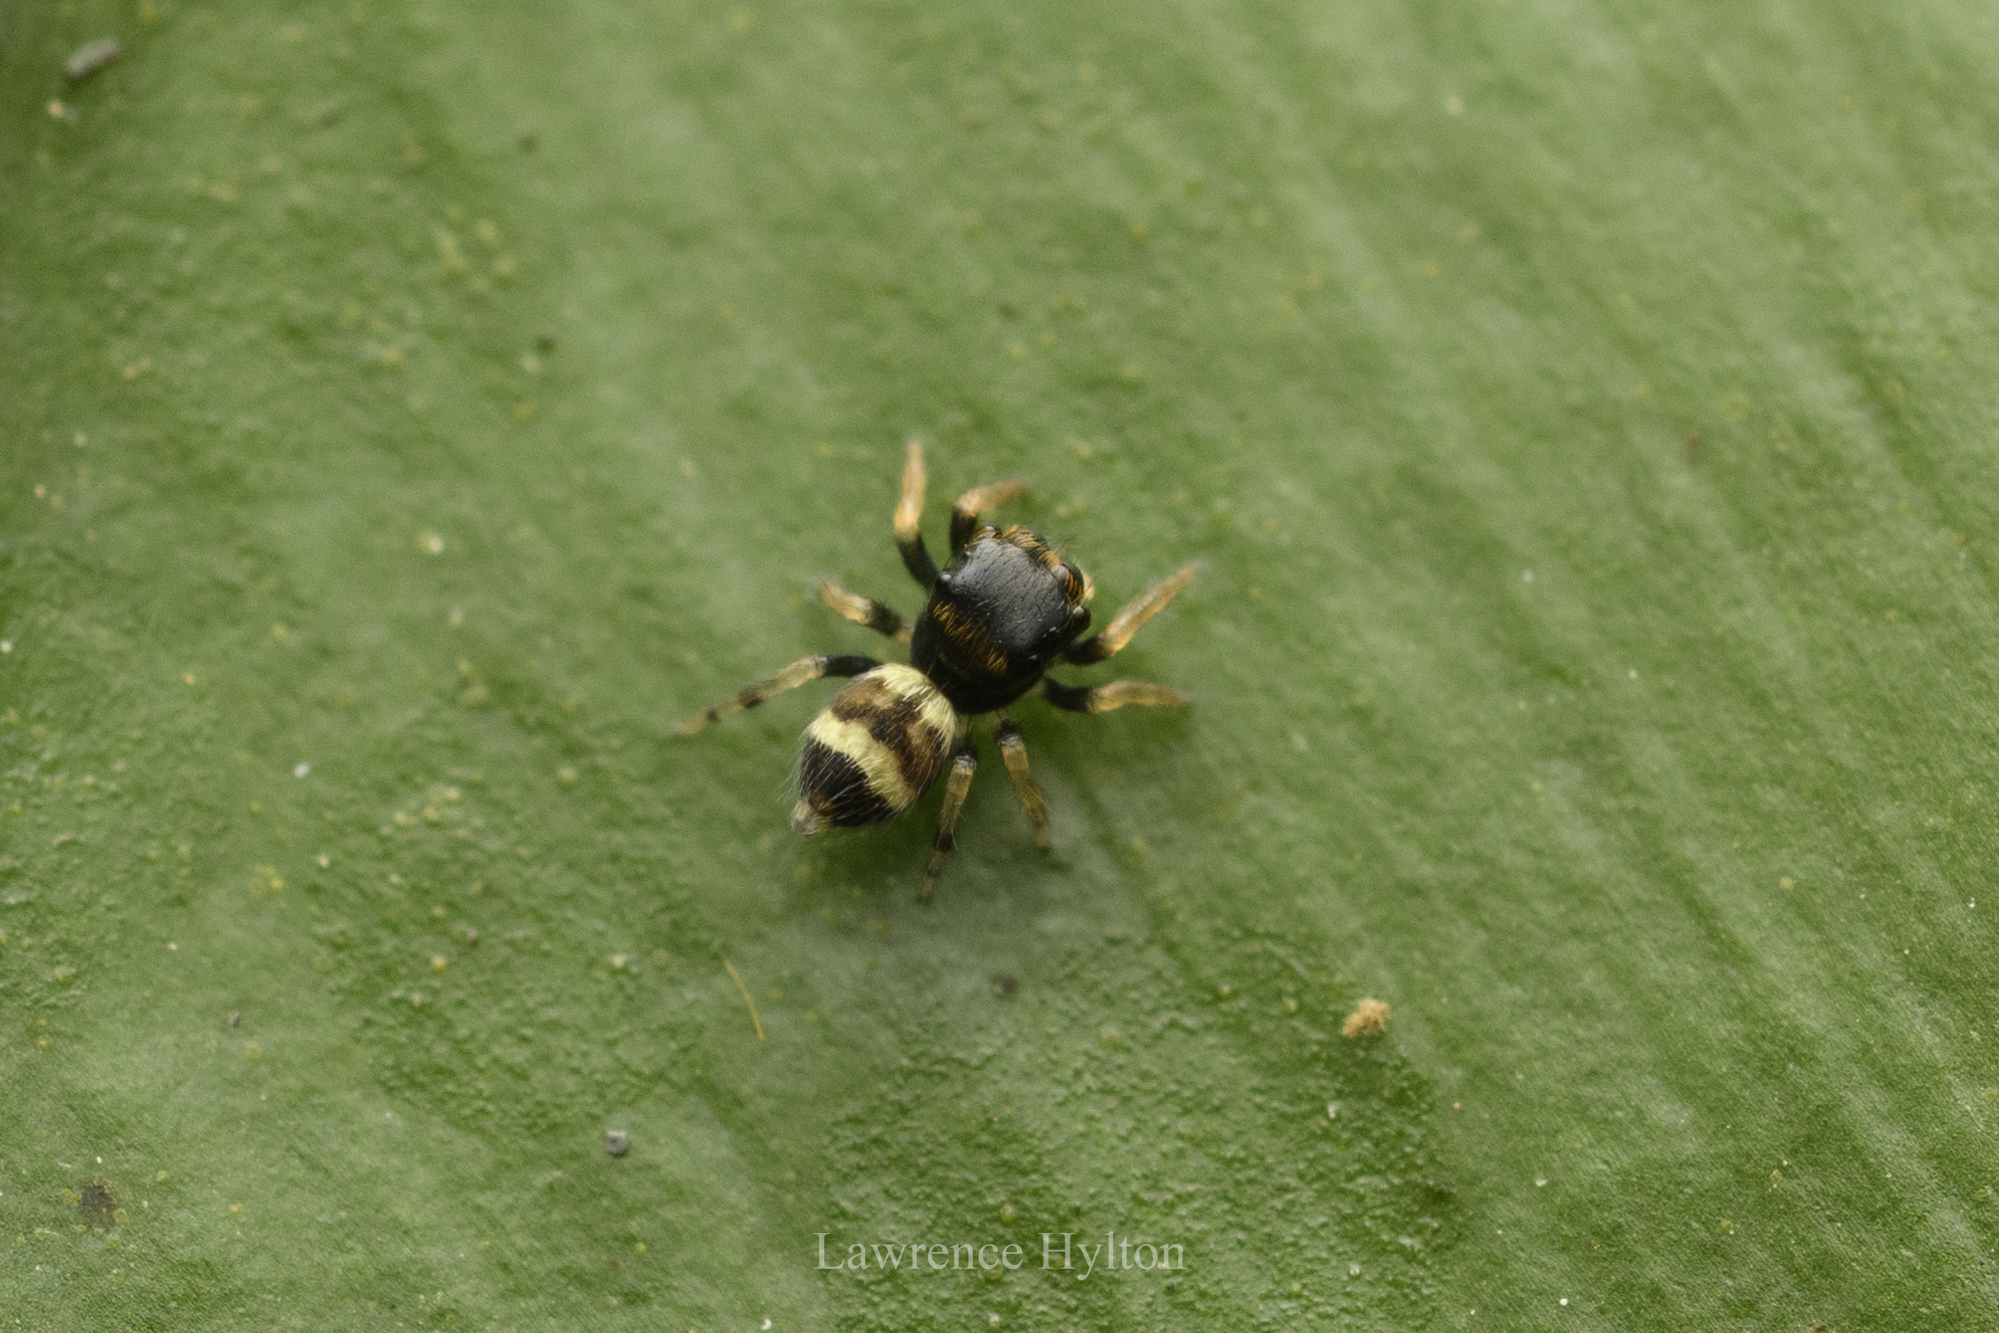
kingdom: Animalia
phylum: Arthropoda
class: Arachnida
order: Araneae
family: Salticidae
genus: Ptocasius
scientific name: Ptocasius strupifer
